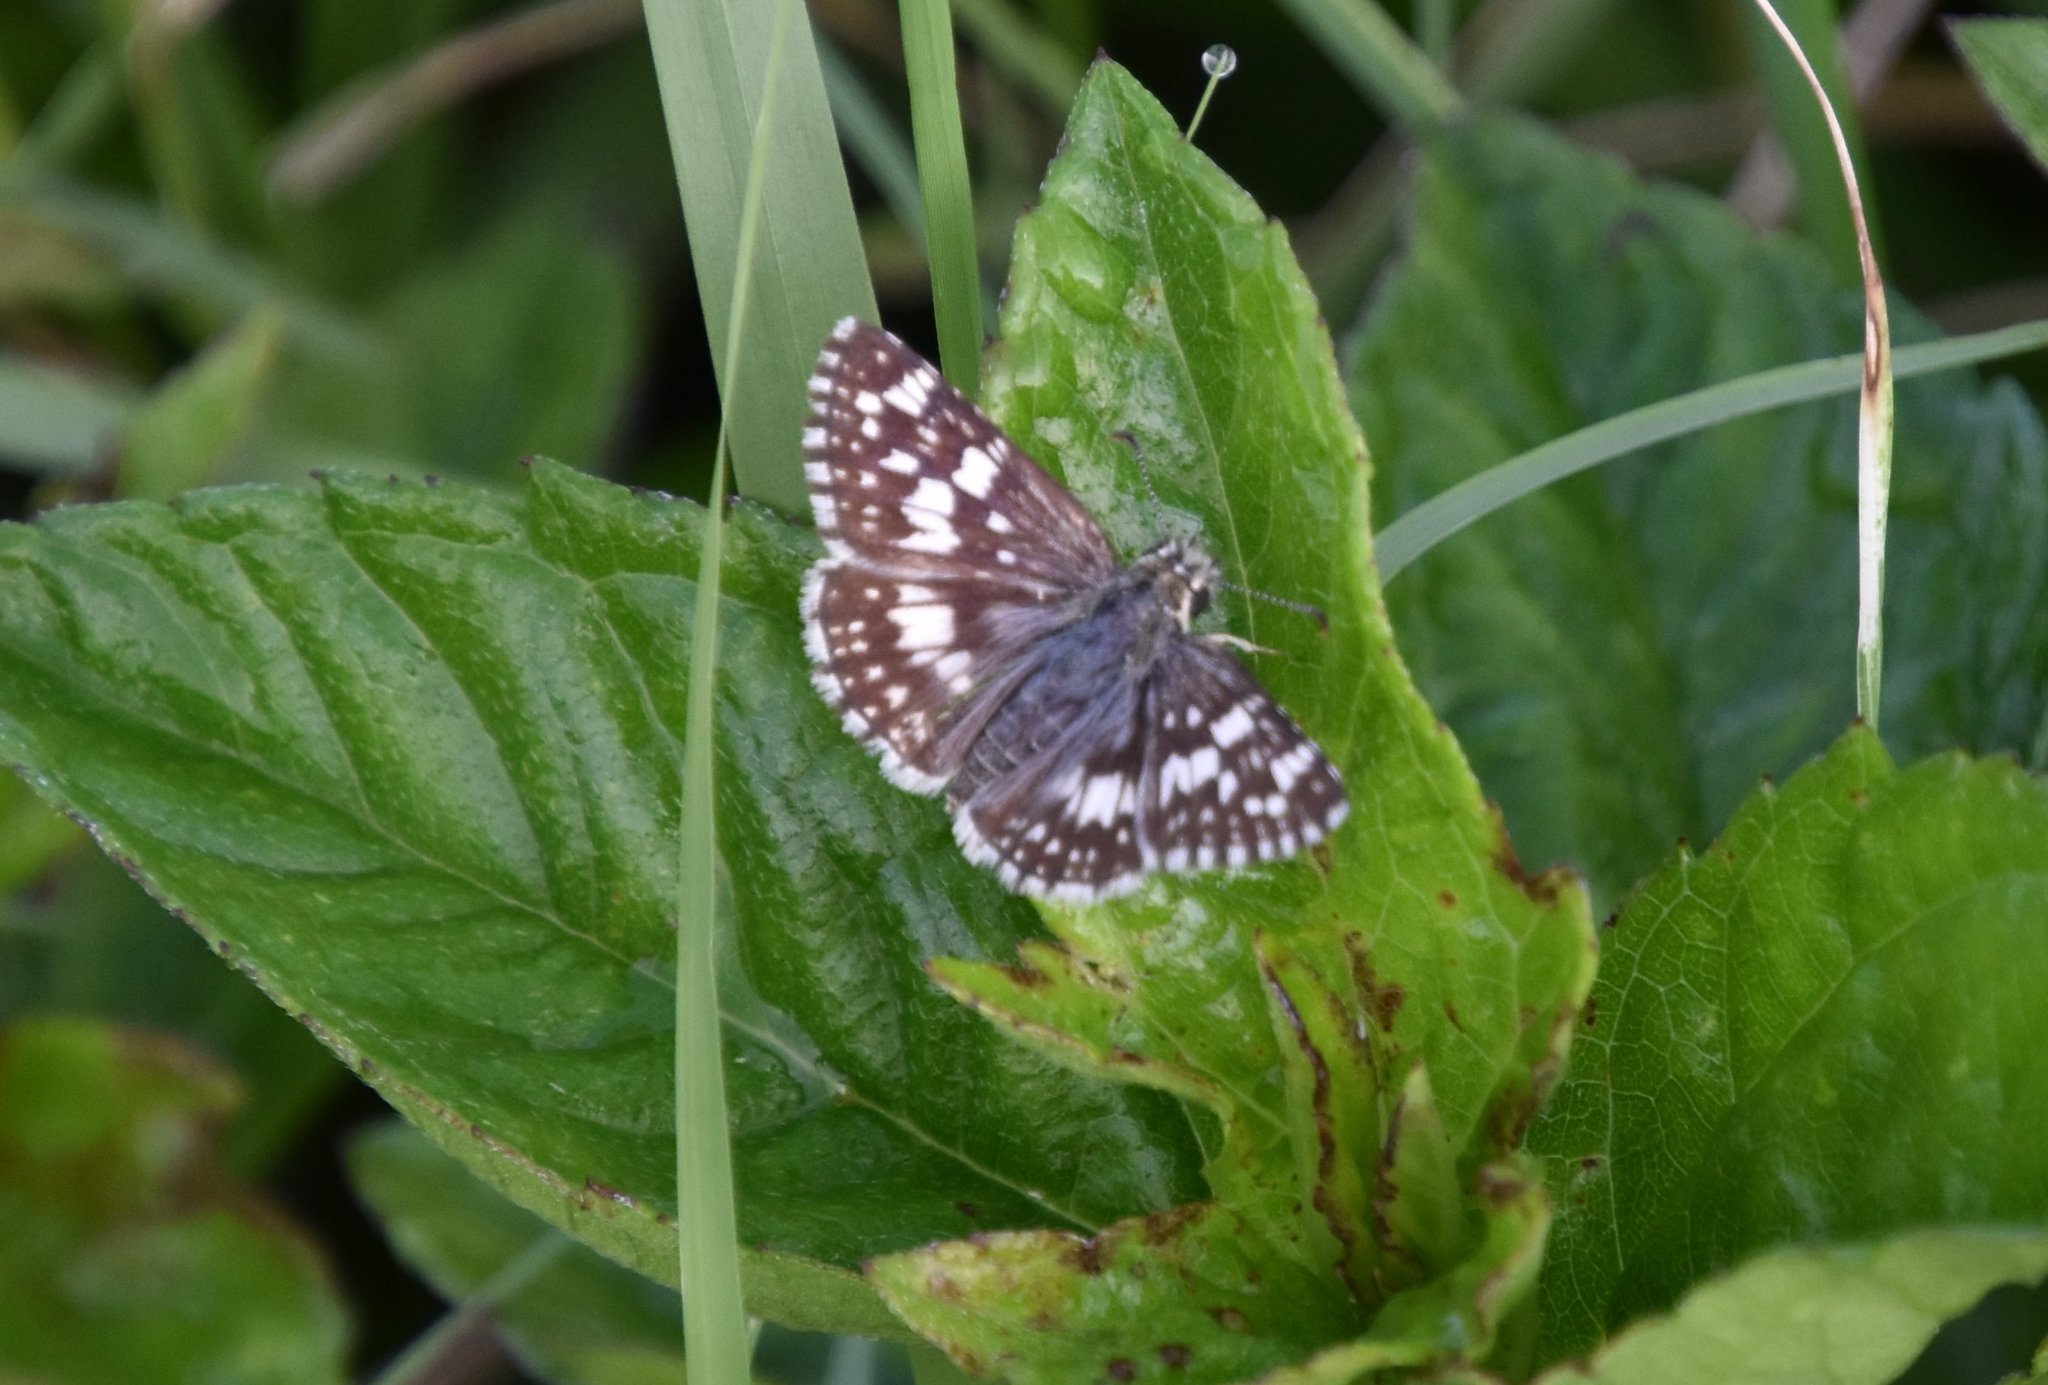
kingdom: Animalia
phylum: Arthropoda
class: Insecta
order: Lepidoptera
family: Hesperiidae
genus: Burnsius
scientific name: Burnsius albezens
